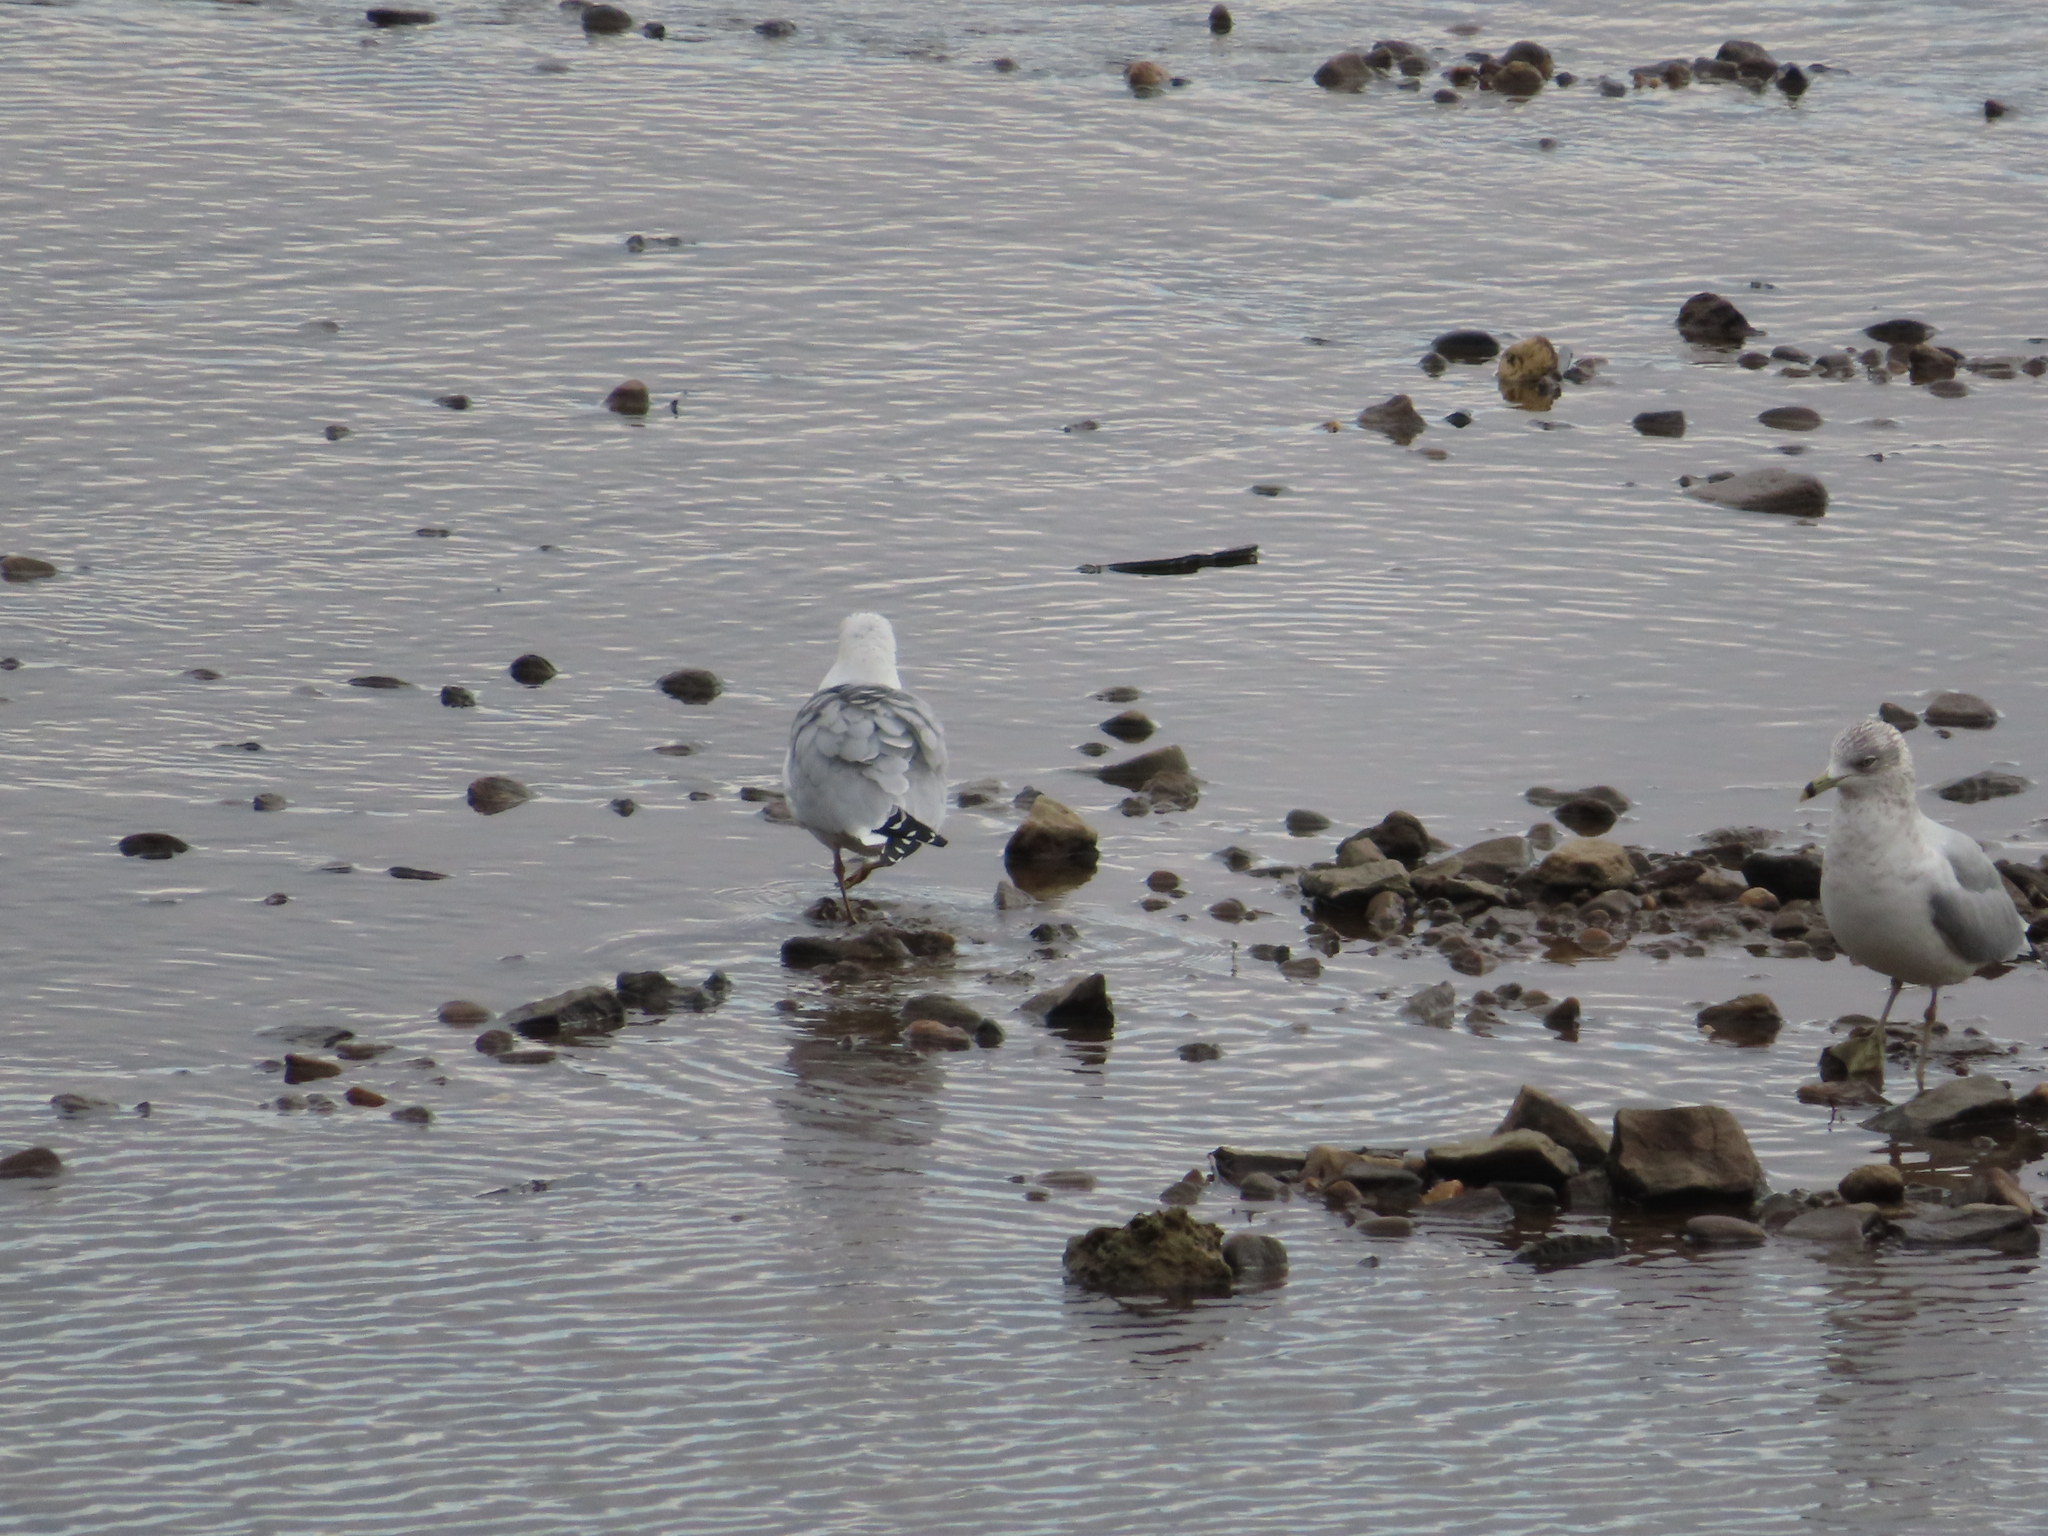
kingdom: Animalia
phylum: Chordata
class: Aves
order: Charadriiformes
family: Laridae
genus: Larus
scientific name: Larus delawarensis
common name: Ring-billed gull
